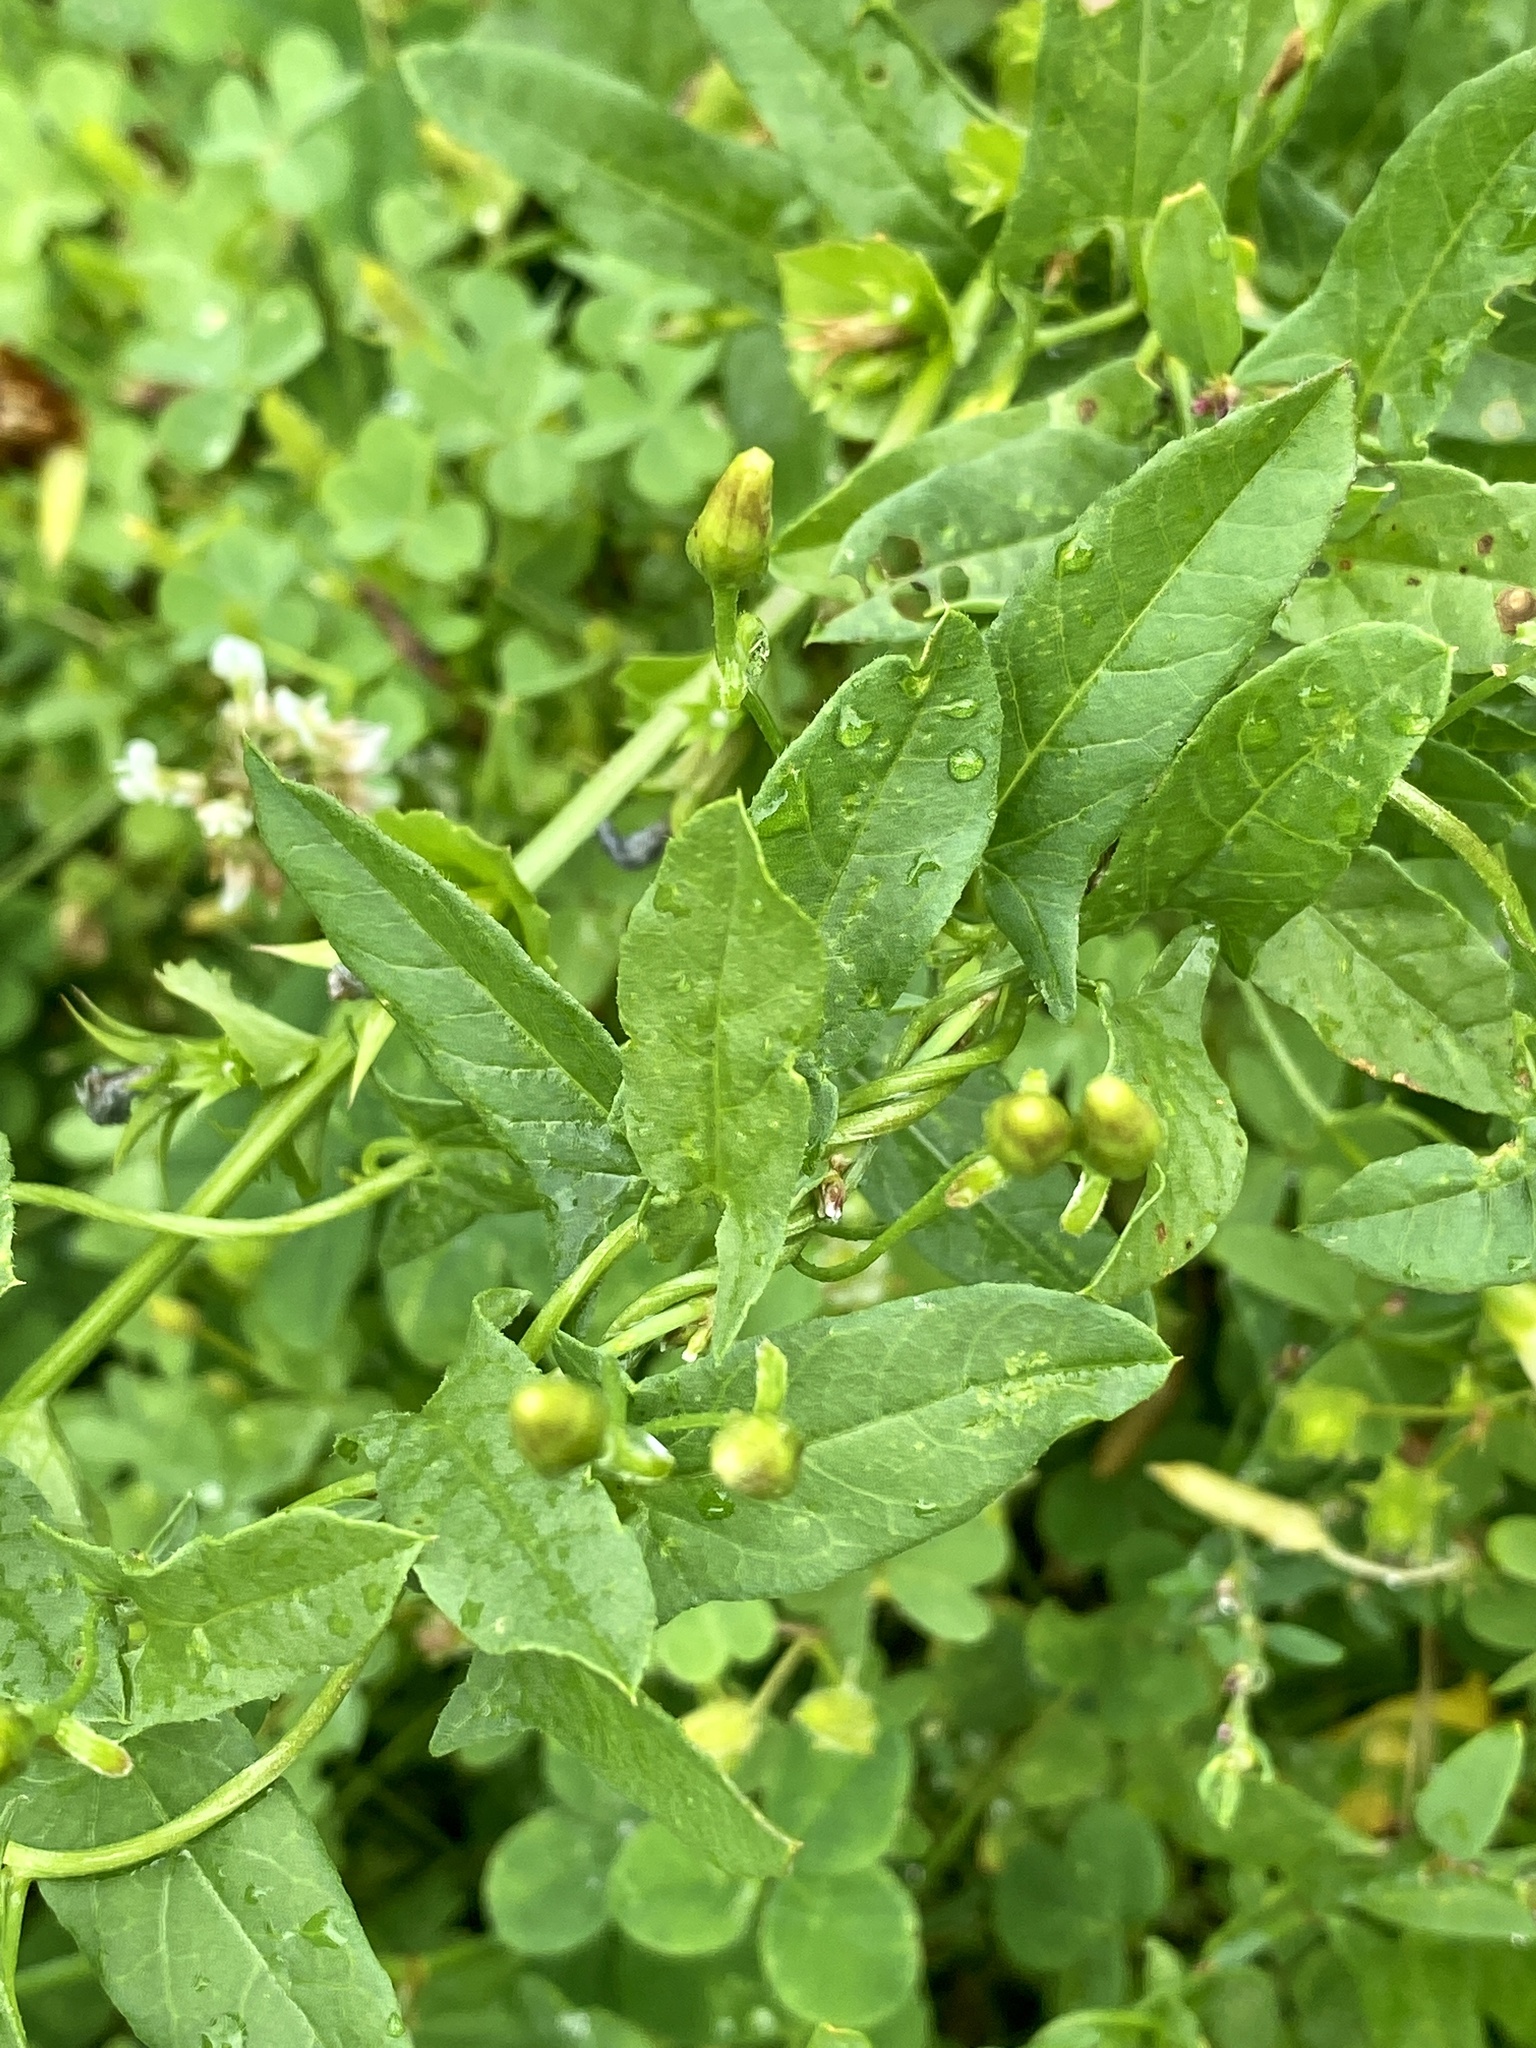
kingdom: Plantae
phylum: Tracheophyta
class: Magnoliopsida
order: Solanales
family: Convolvulaceae
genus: Convolvulus
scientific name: Convolvulus arvensis
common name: Field bindweed
